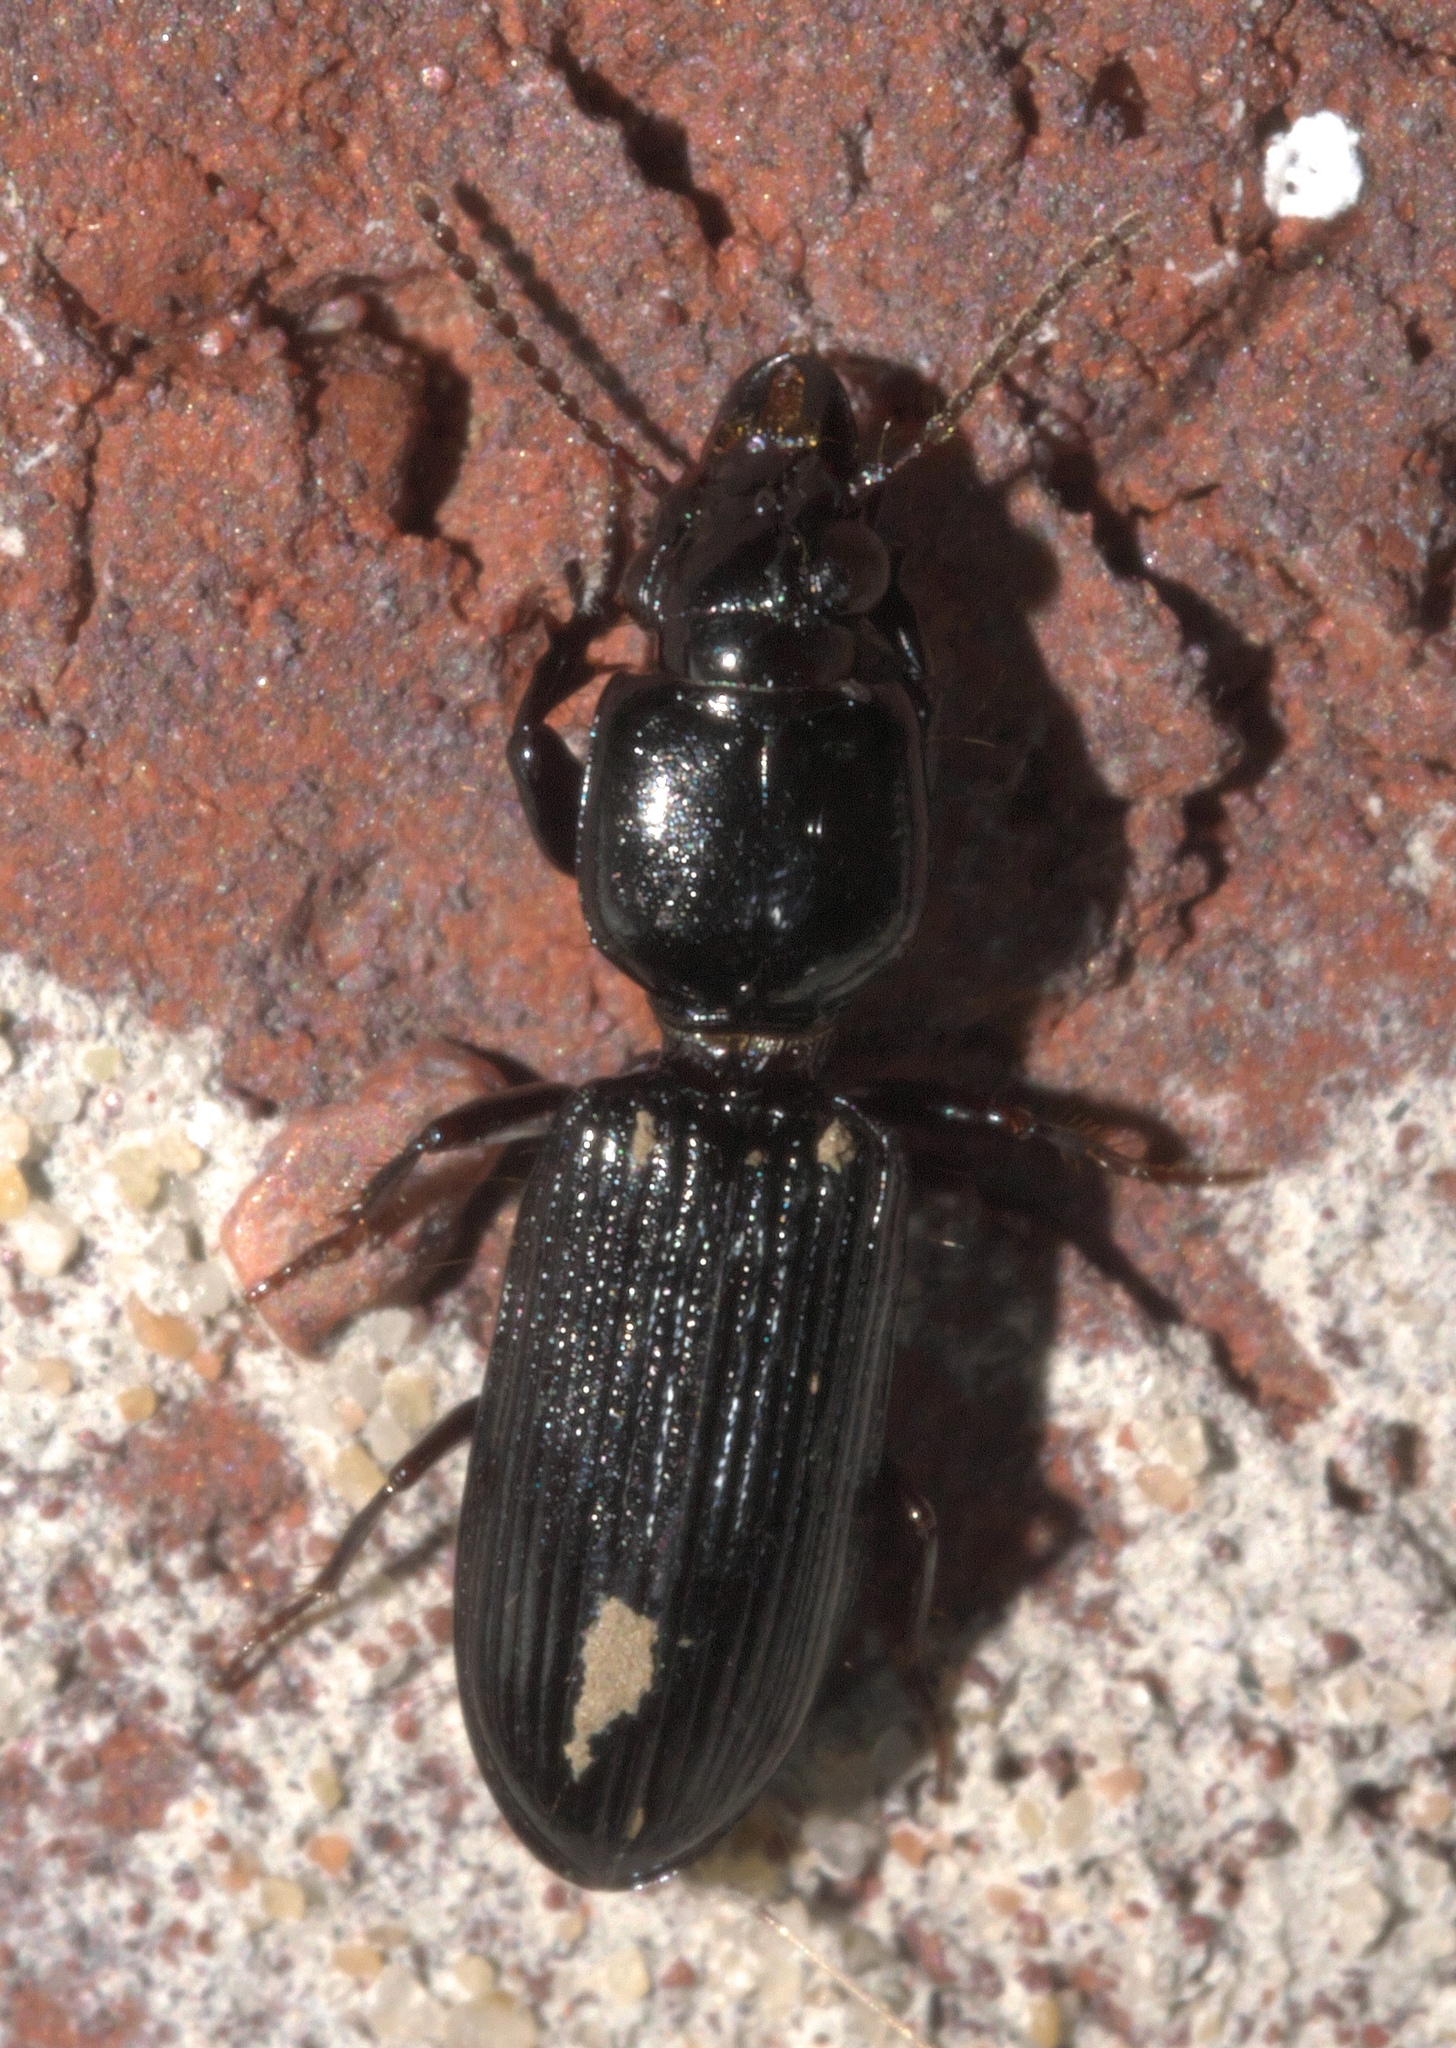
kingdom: Animalia
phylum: Arthropoda
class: Insecta
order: Coleoptera
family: Carabidae
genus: Semiclivina
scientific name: Semiclivina dentipes
